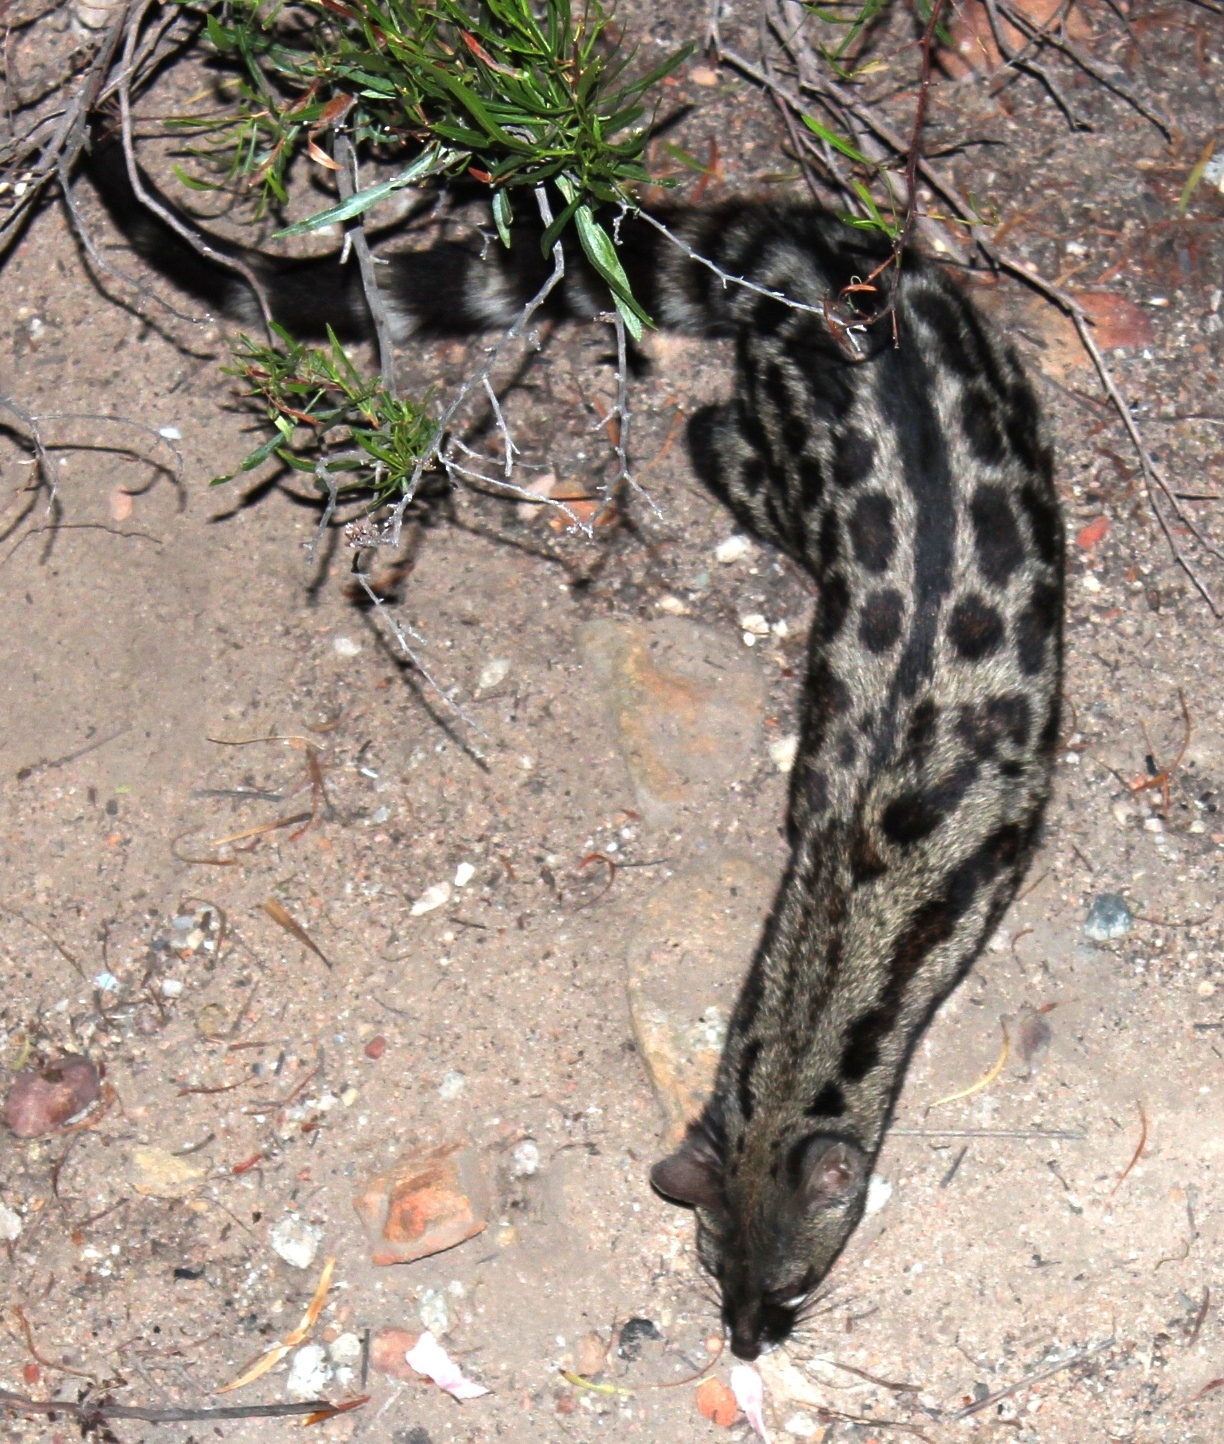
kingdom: Animalia
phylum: Chordata
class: Mammalia
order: Carnivora
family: Viverridae
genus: Genetta
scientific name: Genetta tigrina
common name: Cape genet
